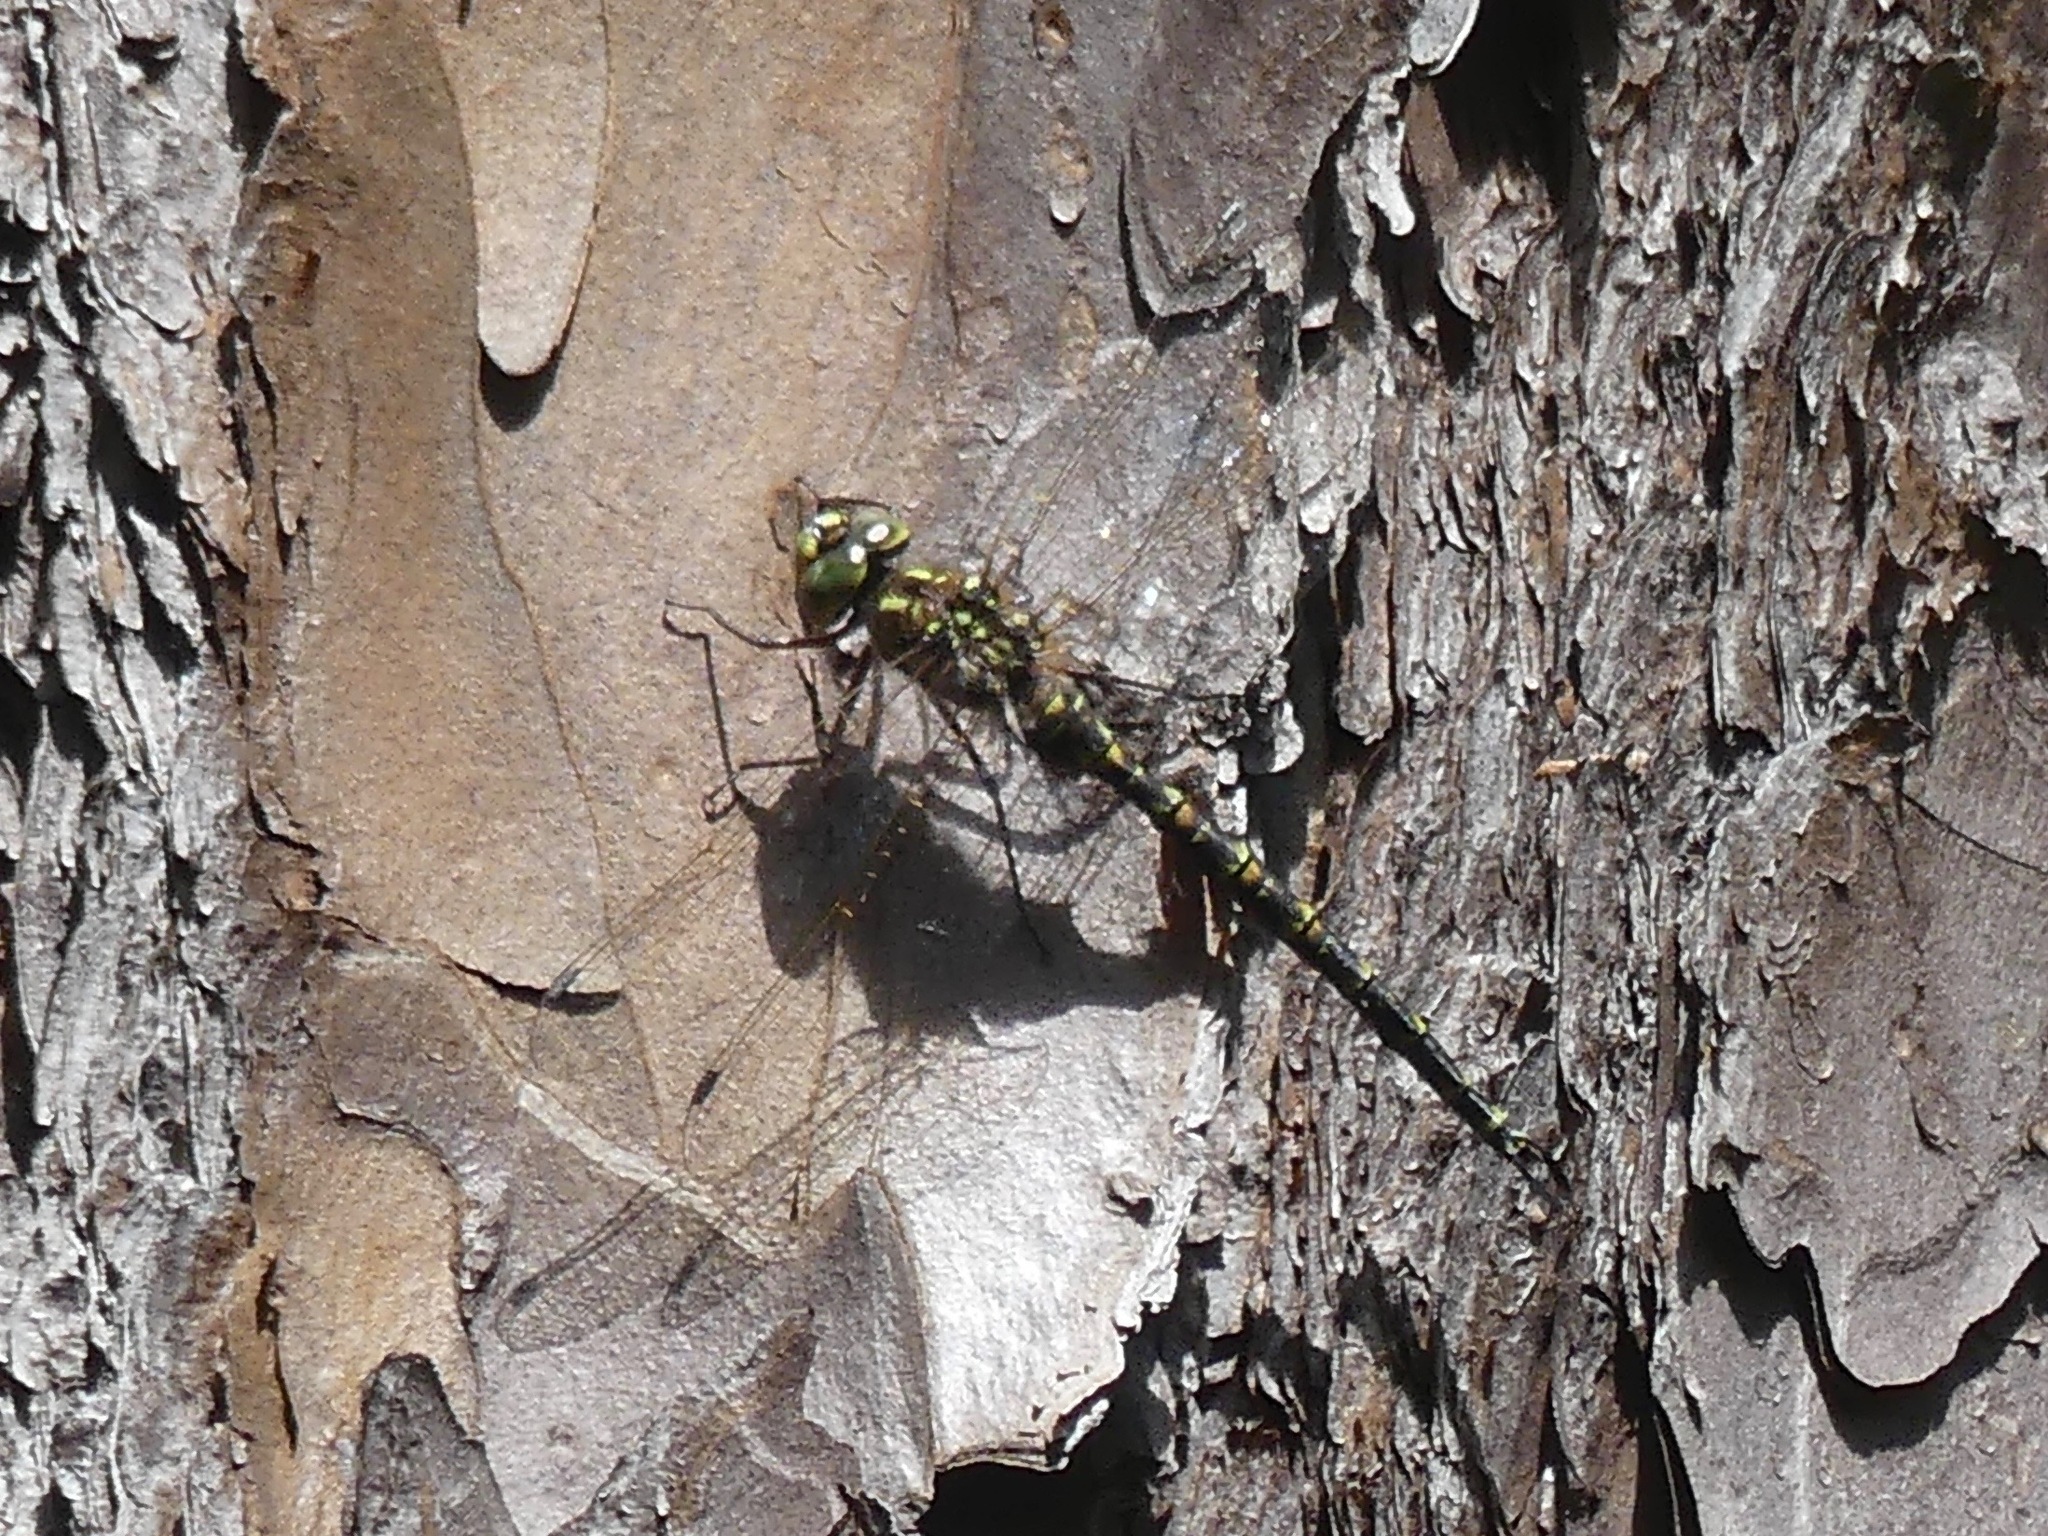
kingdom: Animalia
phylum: Arthropoda
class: Insecta
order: Odonata
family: Aeshnidae
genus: Gomphaeschna
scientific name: Gomphaeschna furcillata
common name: Harlequin darner
